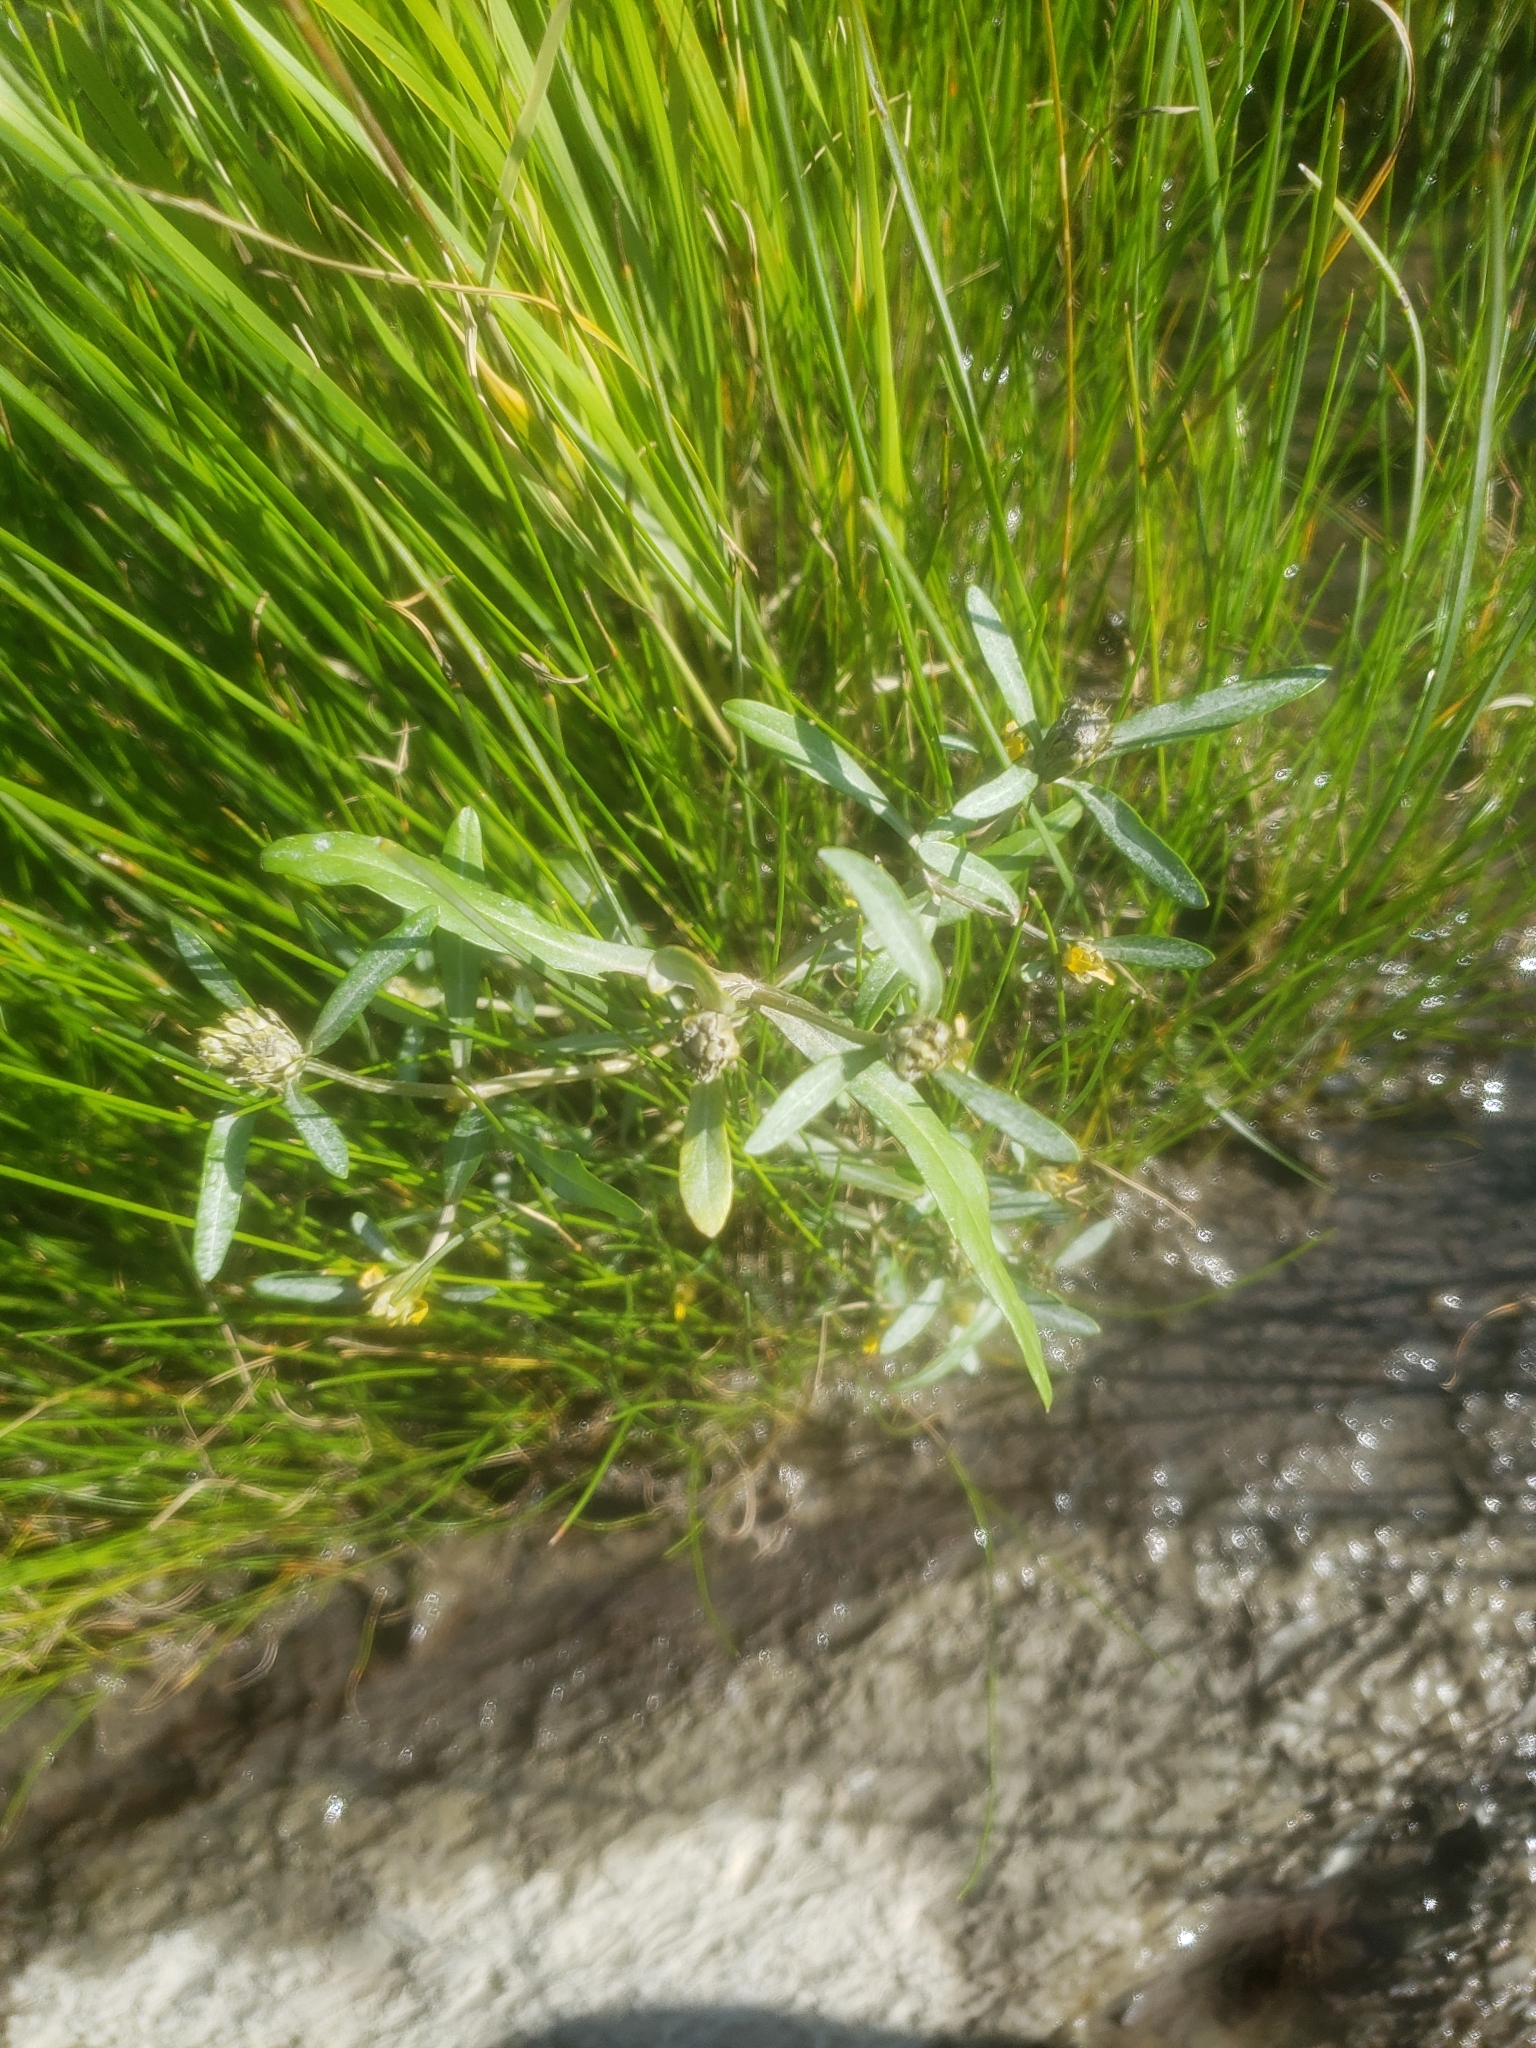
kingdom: Plantae
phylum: Tracheophyta
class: Magnoliopsida
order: Asterales
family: Asteraceae
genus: Bidens
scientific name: Bidens hyperborea
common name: Coastal beggarticks
